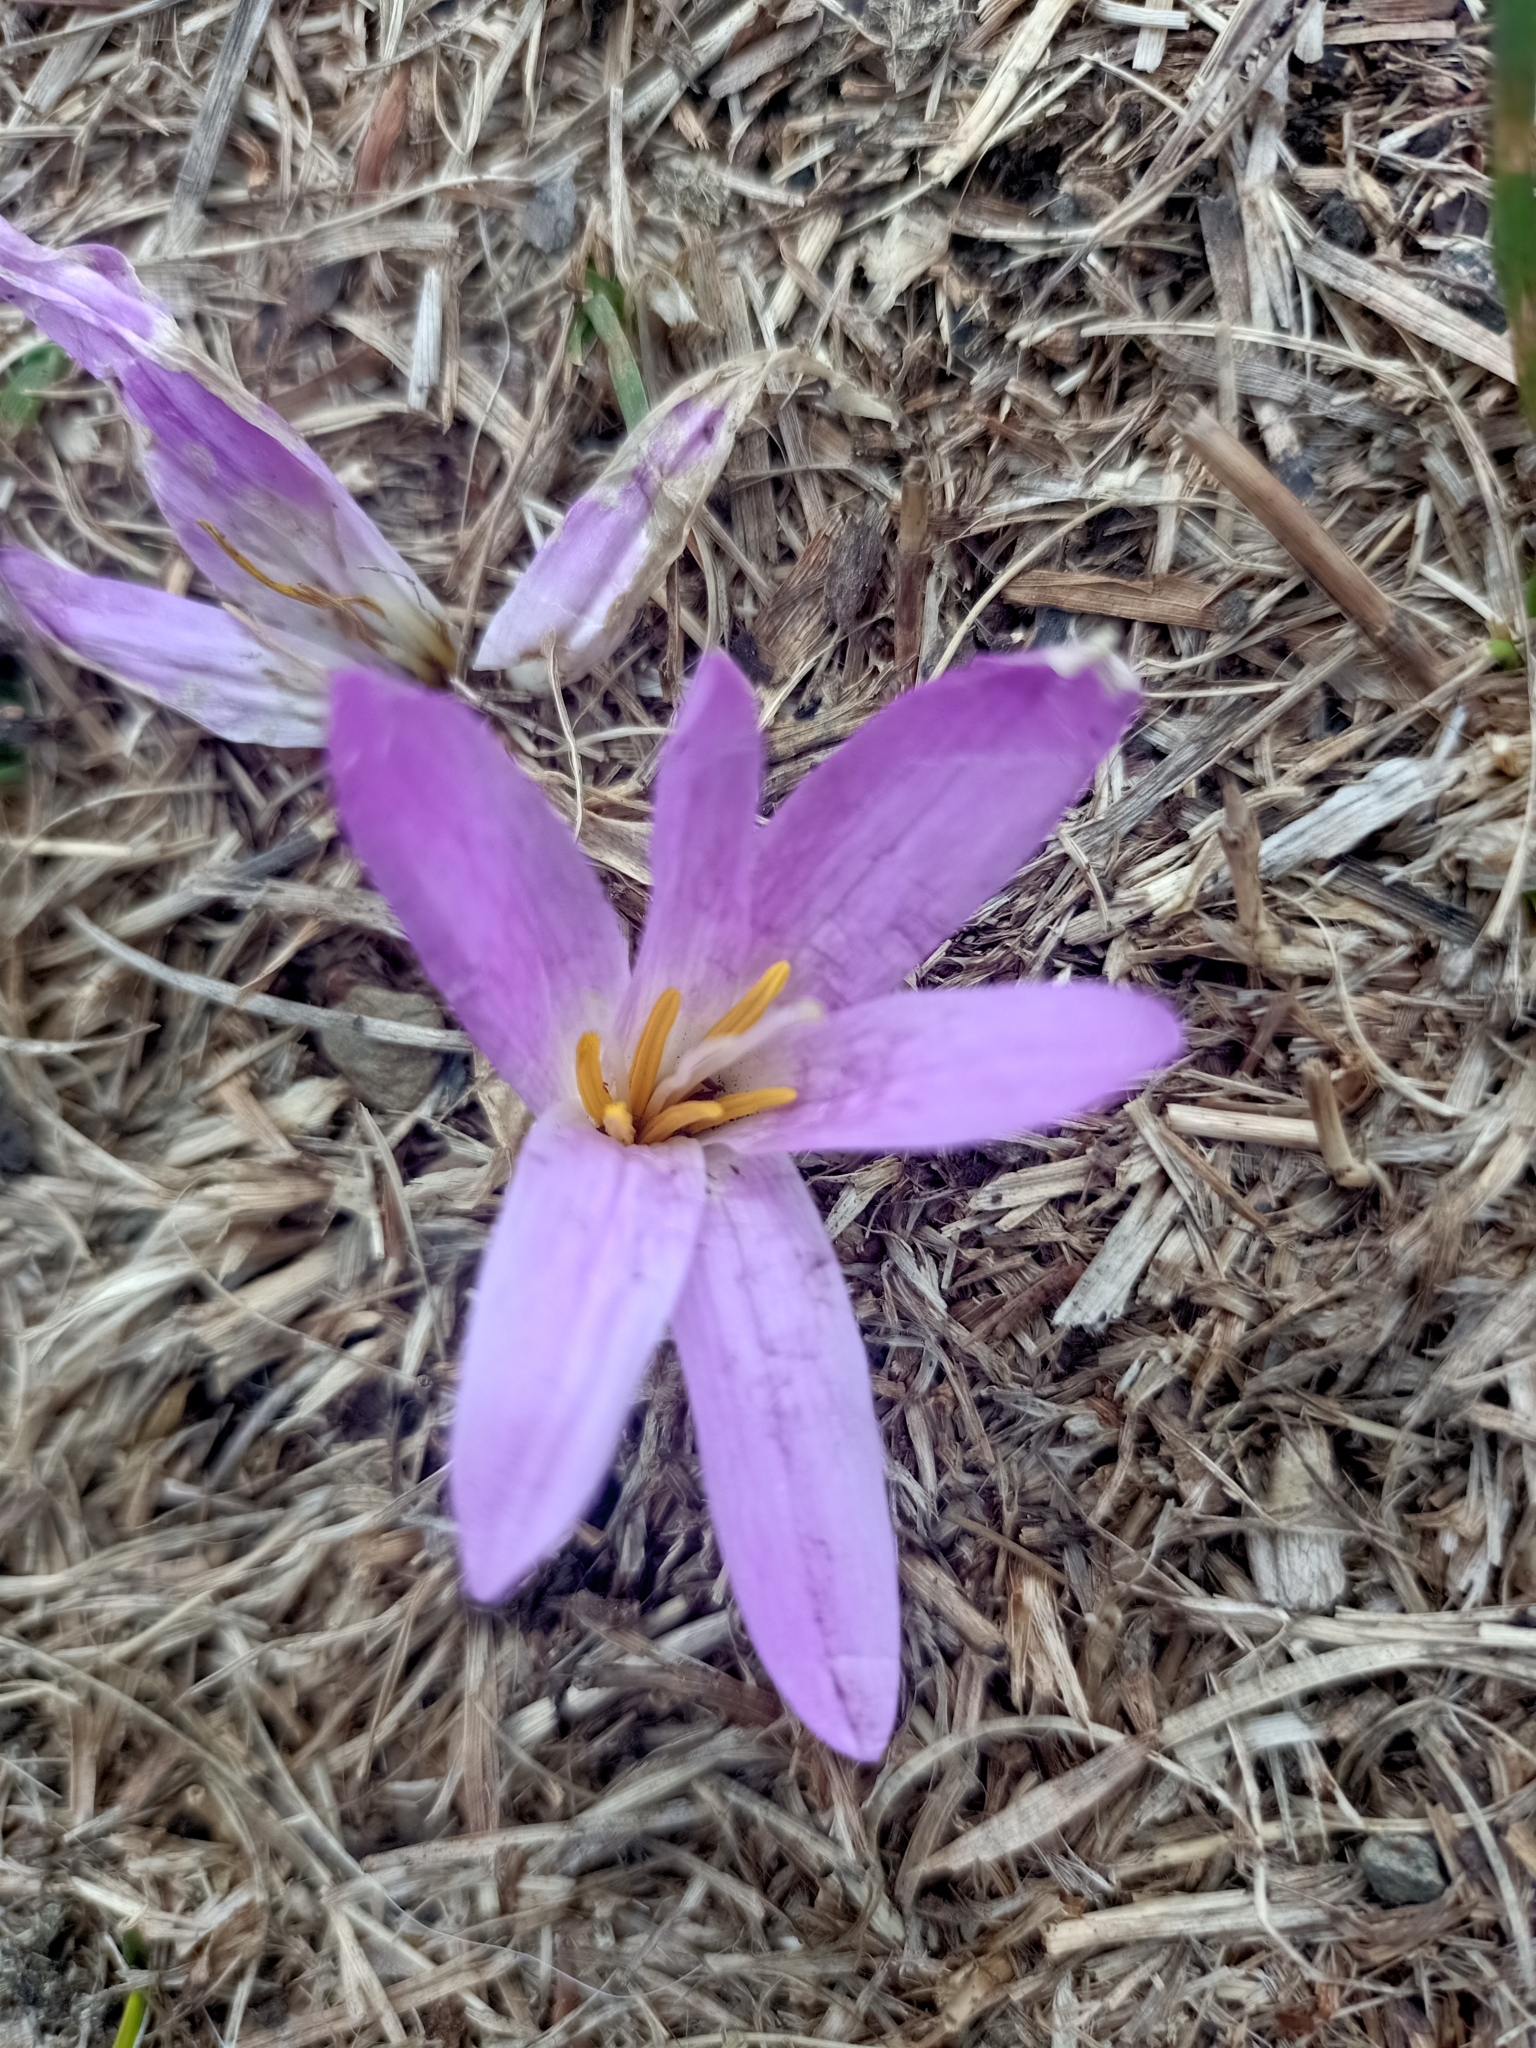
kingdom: Plantae
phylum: Tracheophyta
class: Liliopsida
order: Liliales
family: Colchicaceae
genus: Colchicum
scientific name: Colchicum montanum
